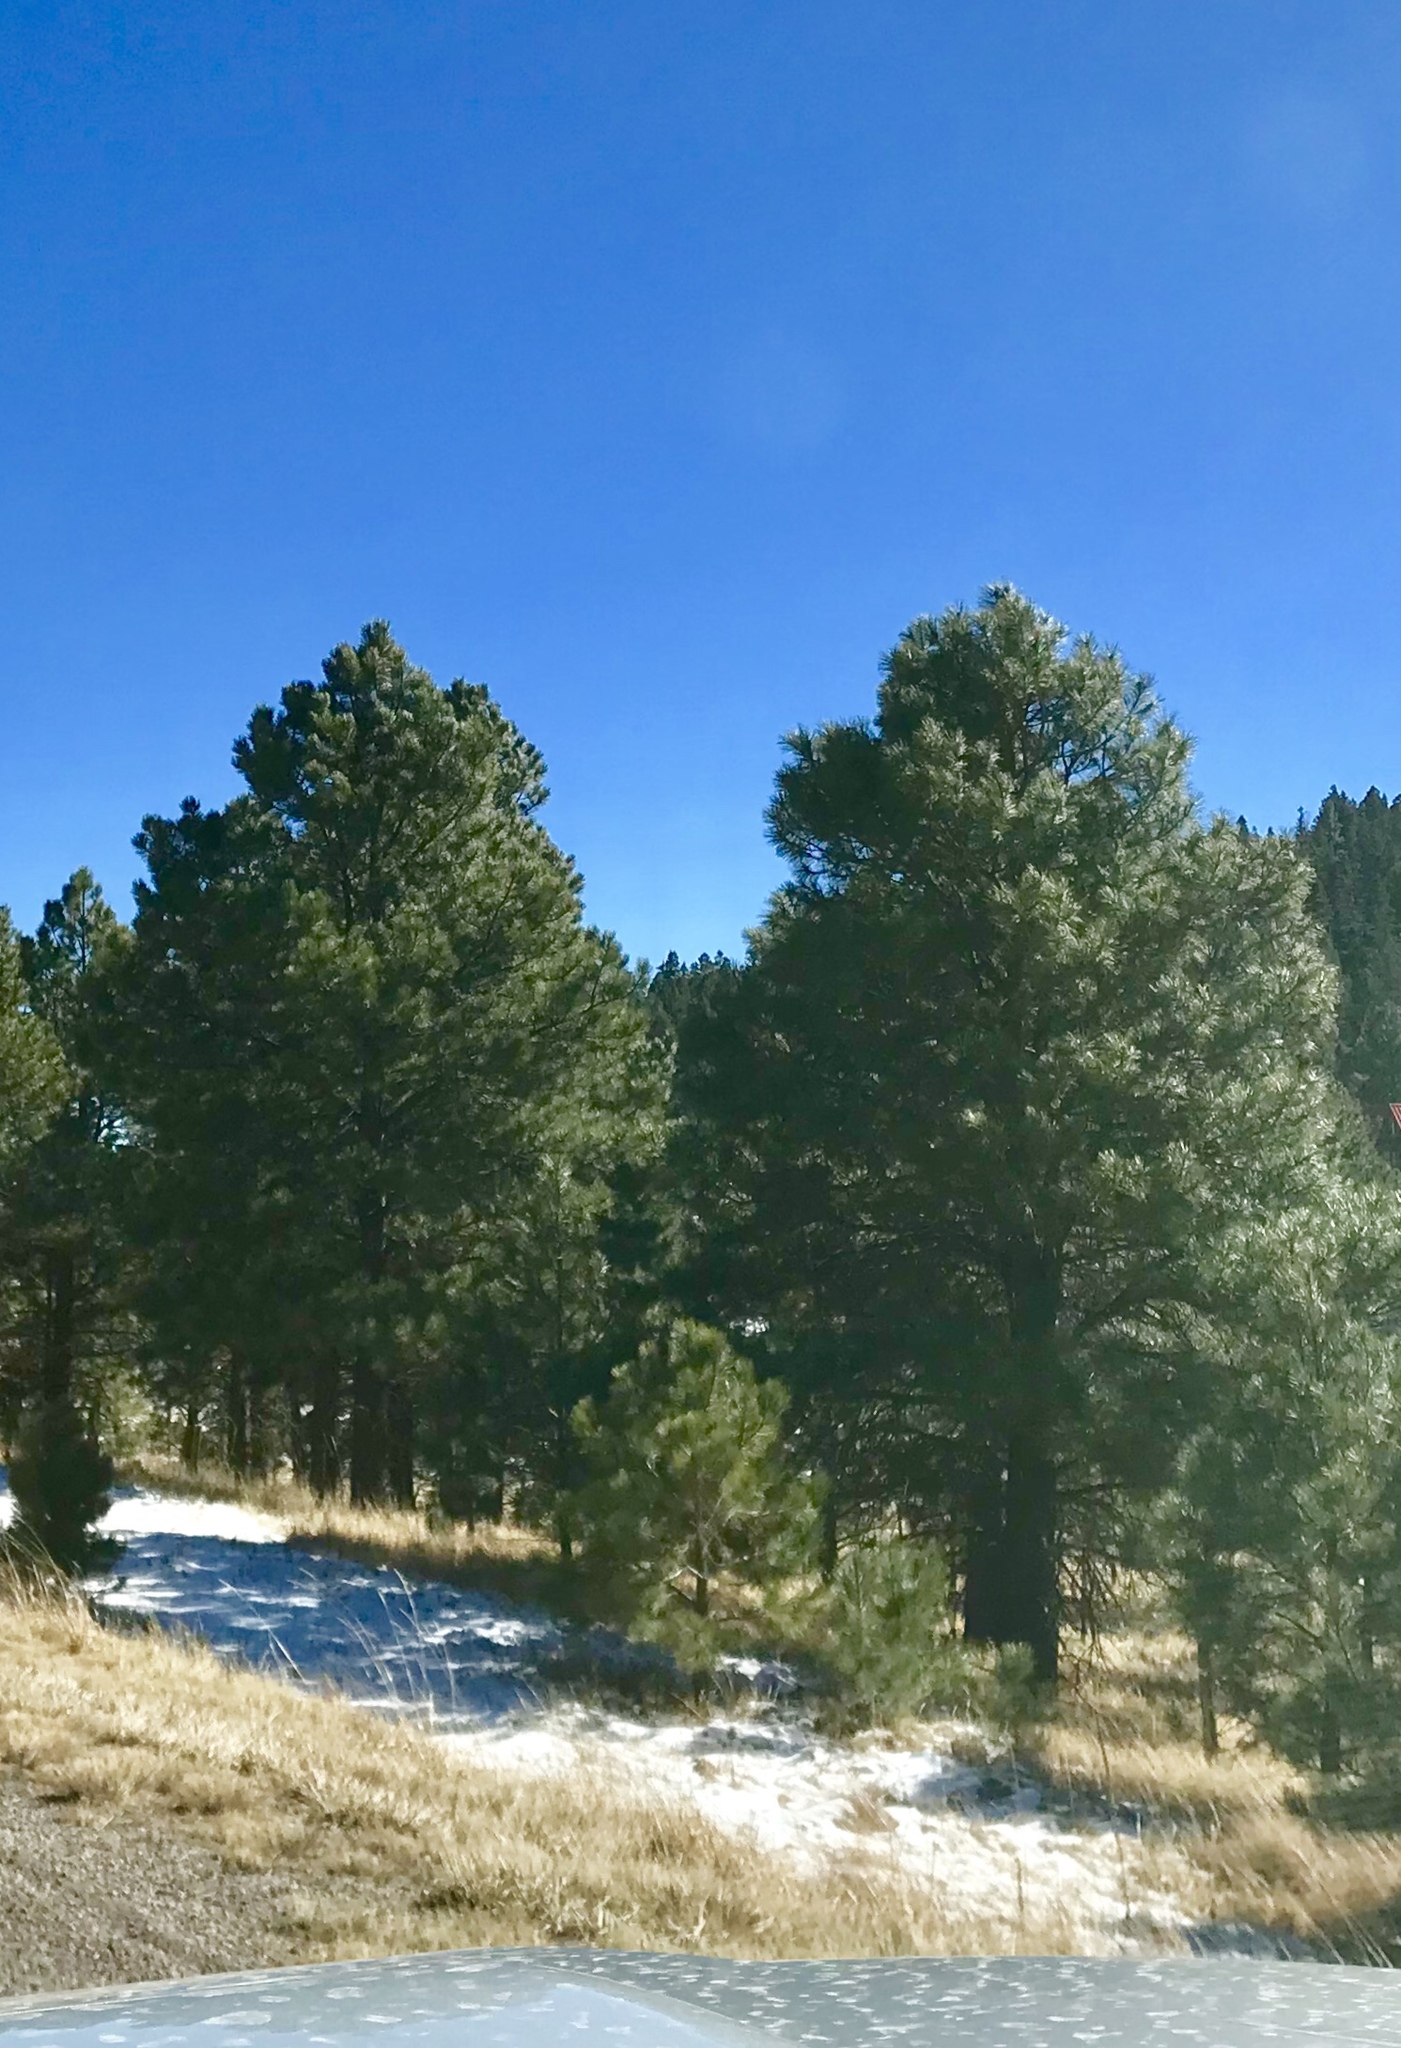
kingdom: Plantae
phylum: Tracheophyta
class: Pinopsida
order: Pinales
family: Pinaceae
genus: Pinus
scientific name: Pinus ponderosa
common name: Western yellow-pine
